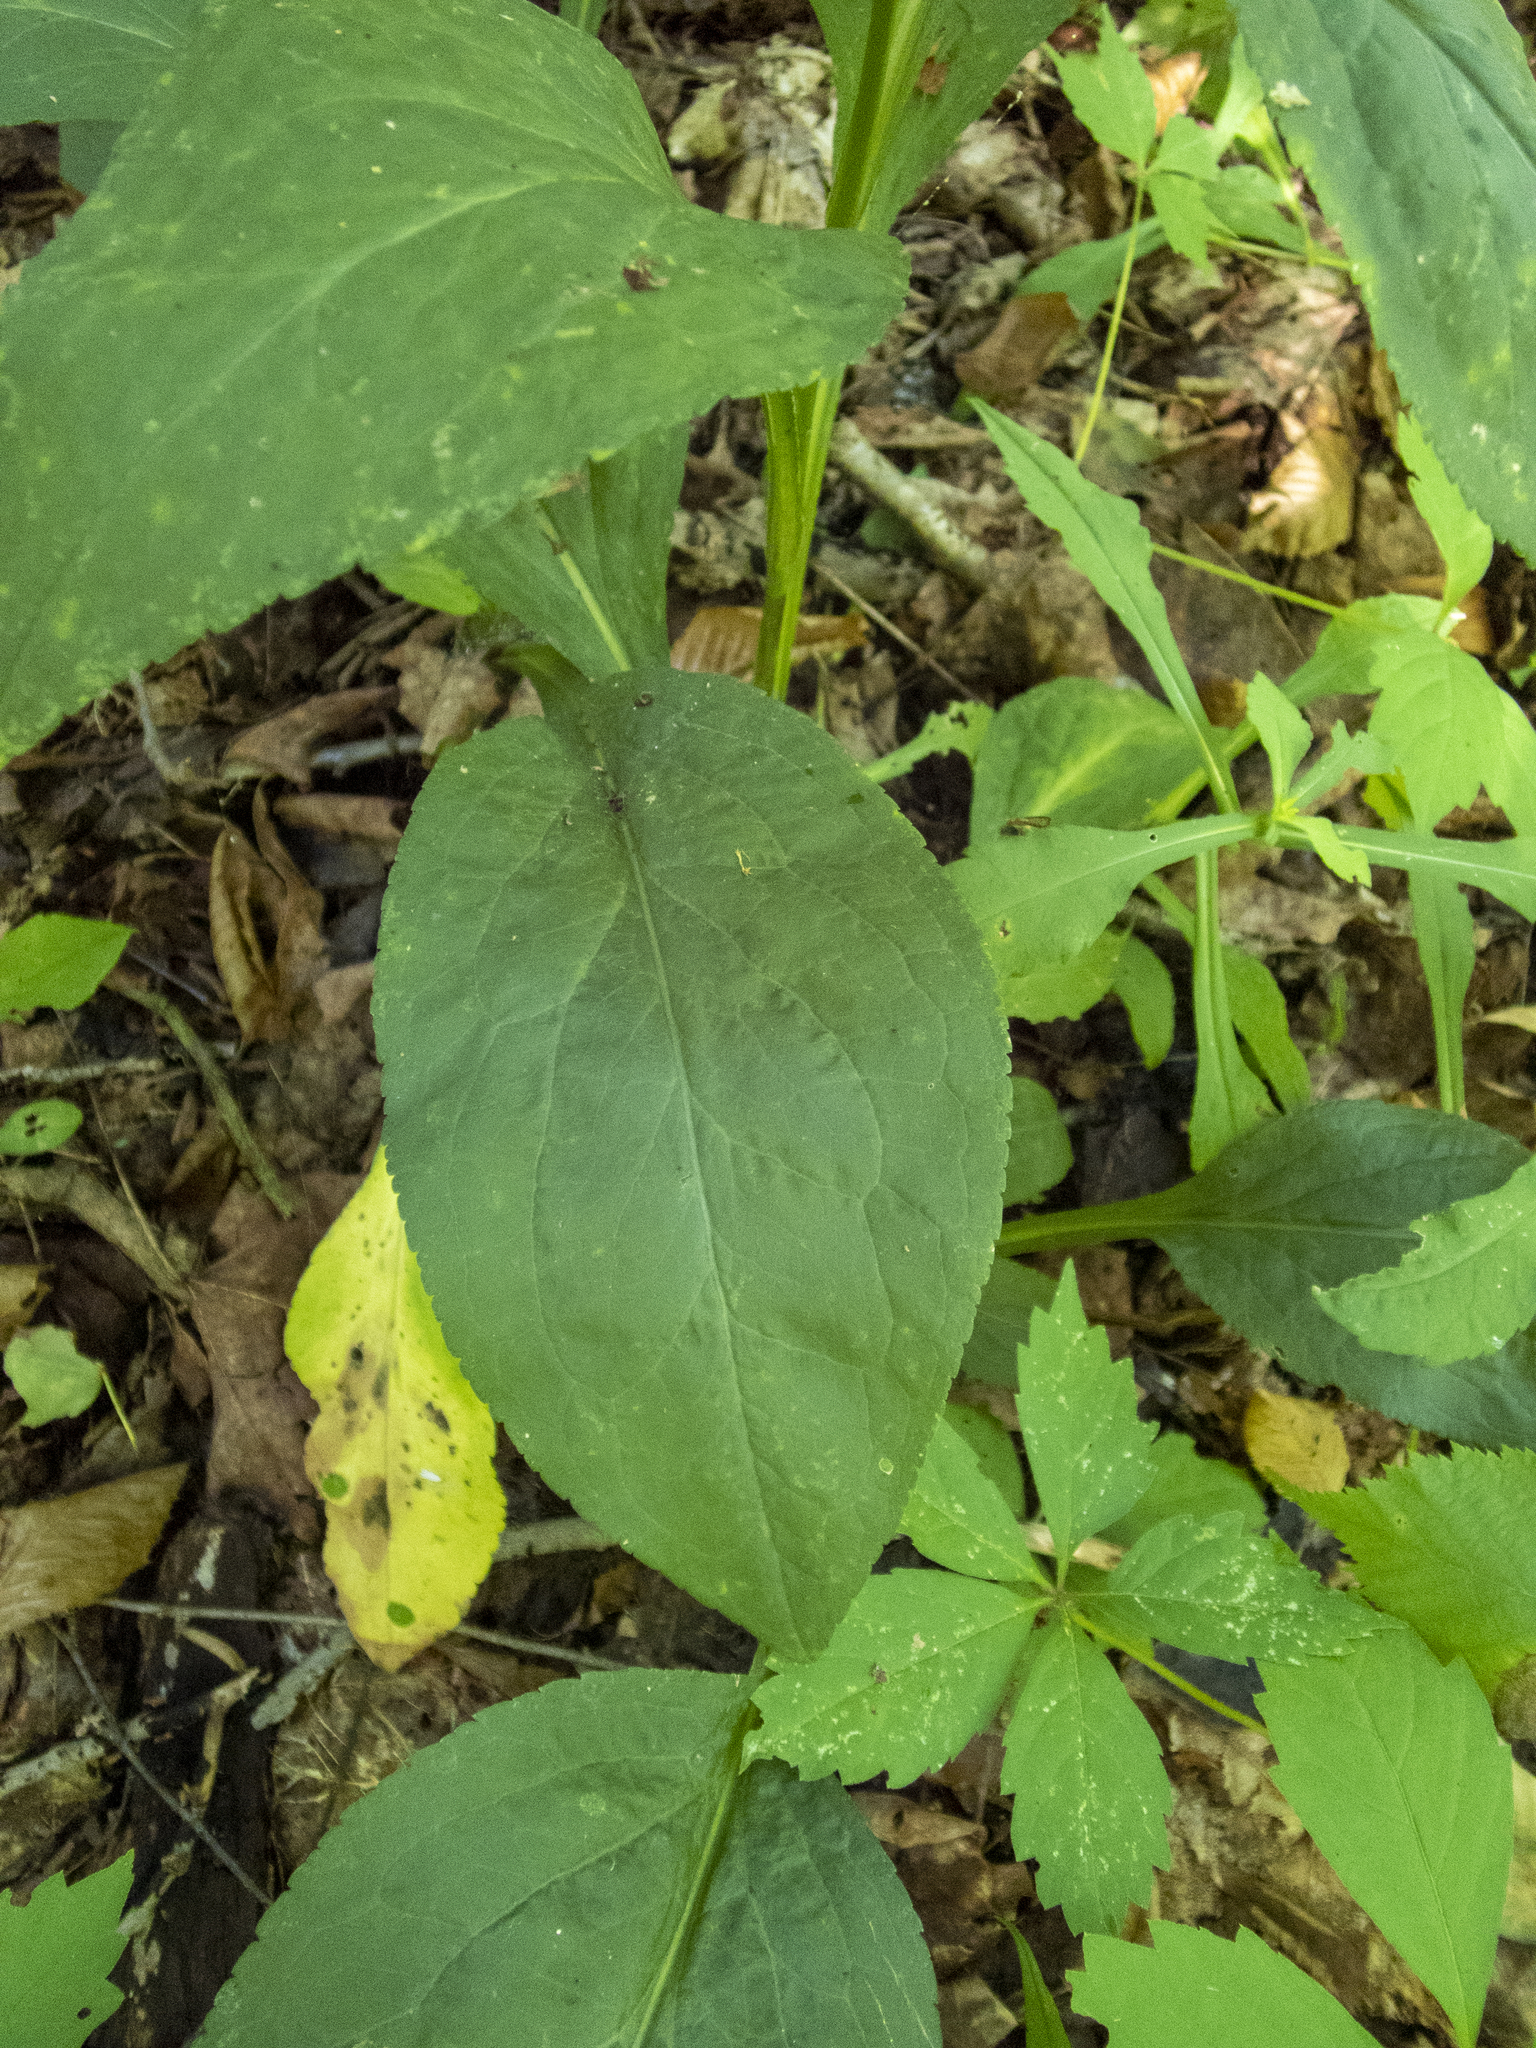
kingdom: Plantae
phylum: Tracheophyta
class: Magnoliopsida
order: Asterales
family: Asteraceae
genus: Solidago
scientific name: Solidago patula
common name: Rough-leaf goldenrod
